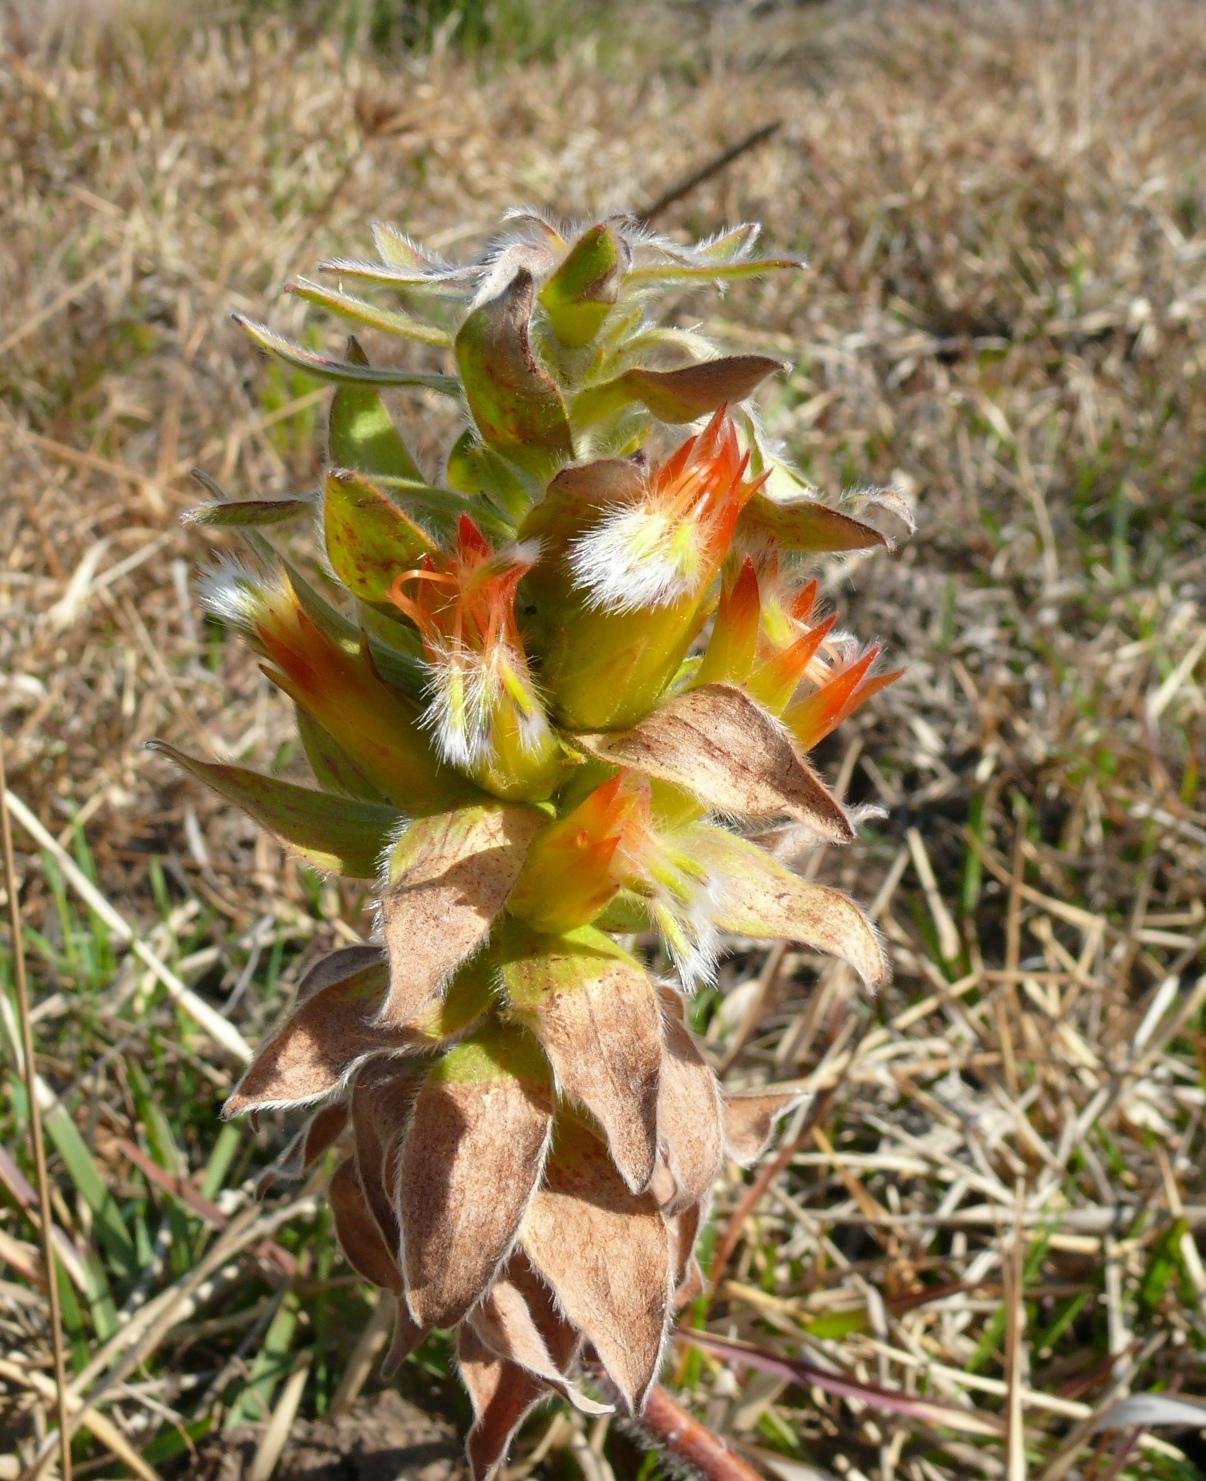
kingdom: Plantae
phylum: Tracheophyta
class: Magnoliopsida
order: Proteales
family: Proteaceae
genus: Mimetes
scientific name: Mimetes hirtus
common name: Marsh pagoda
